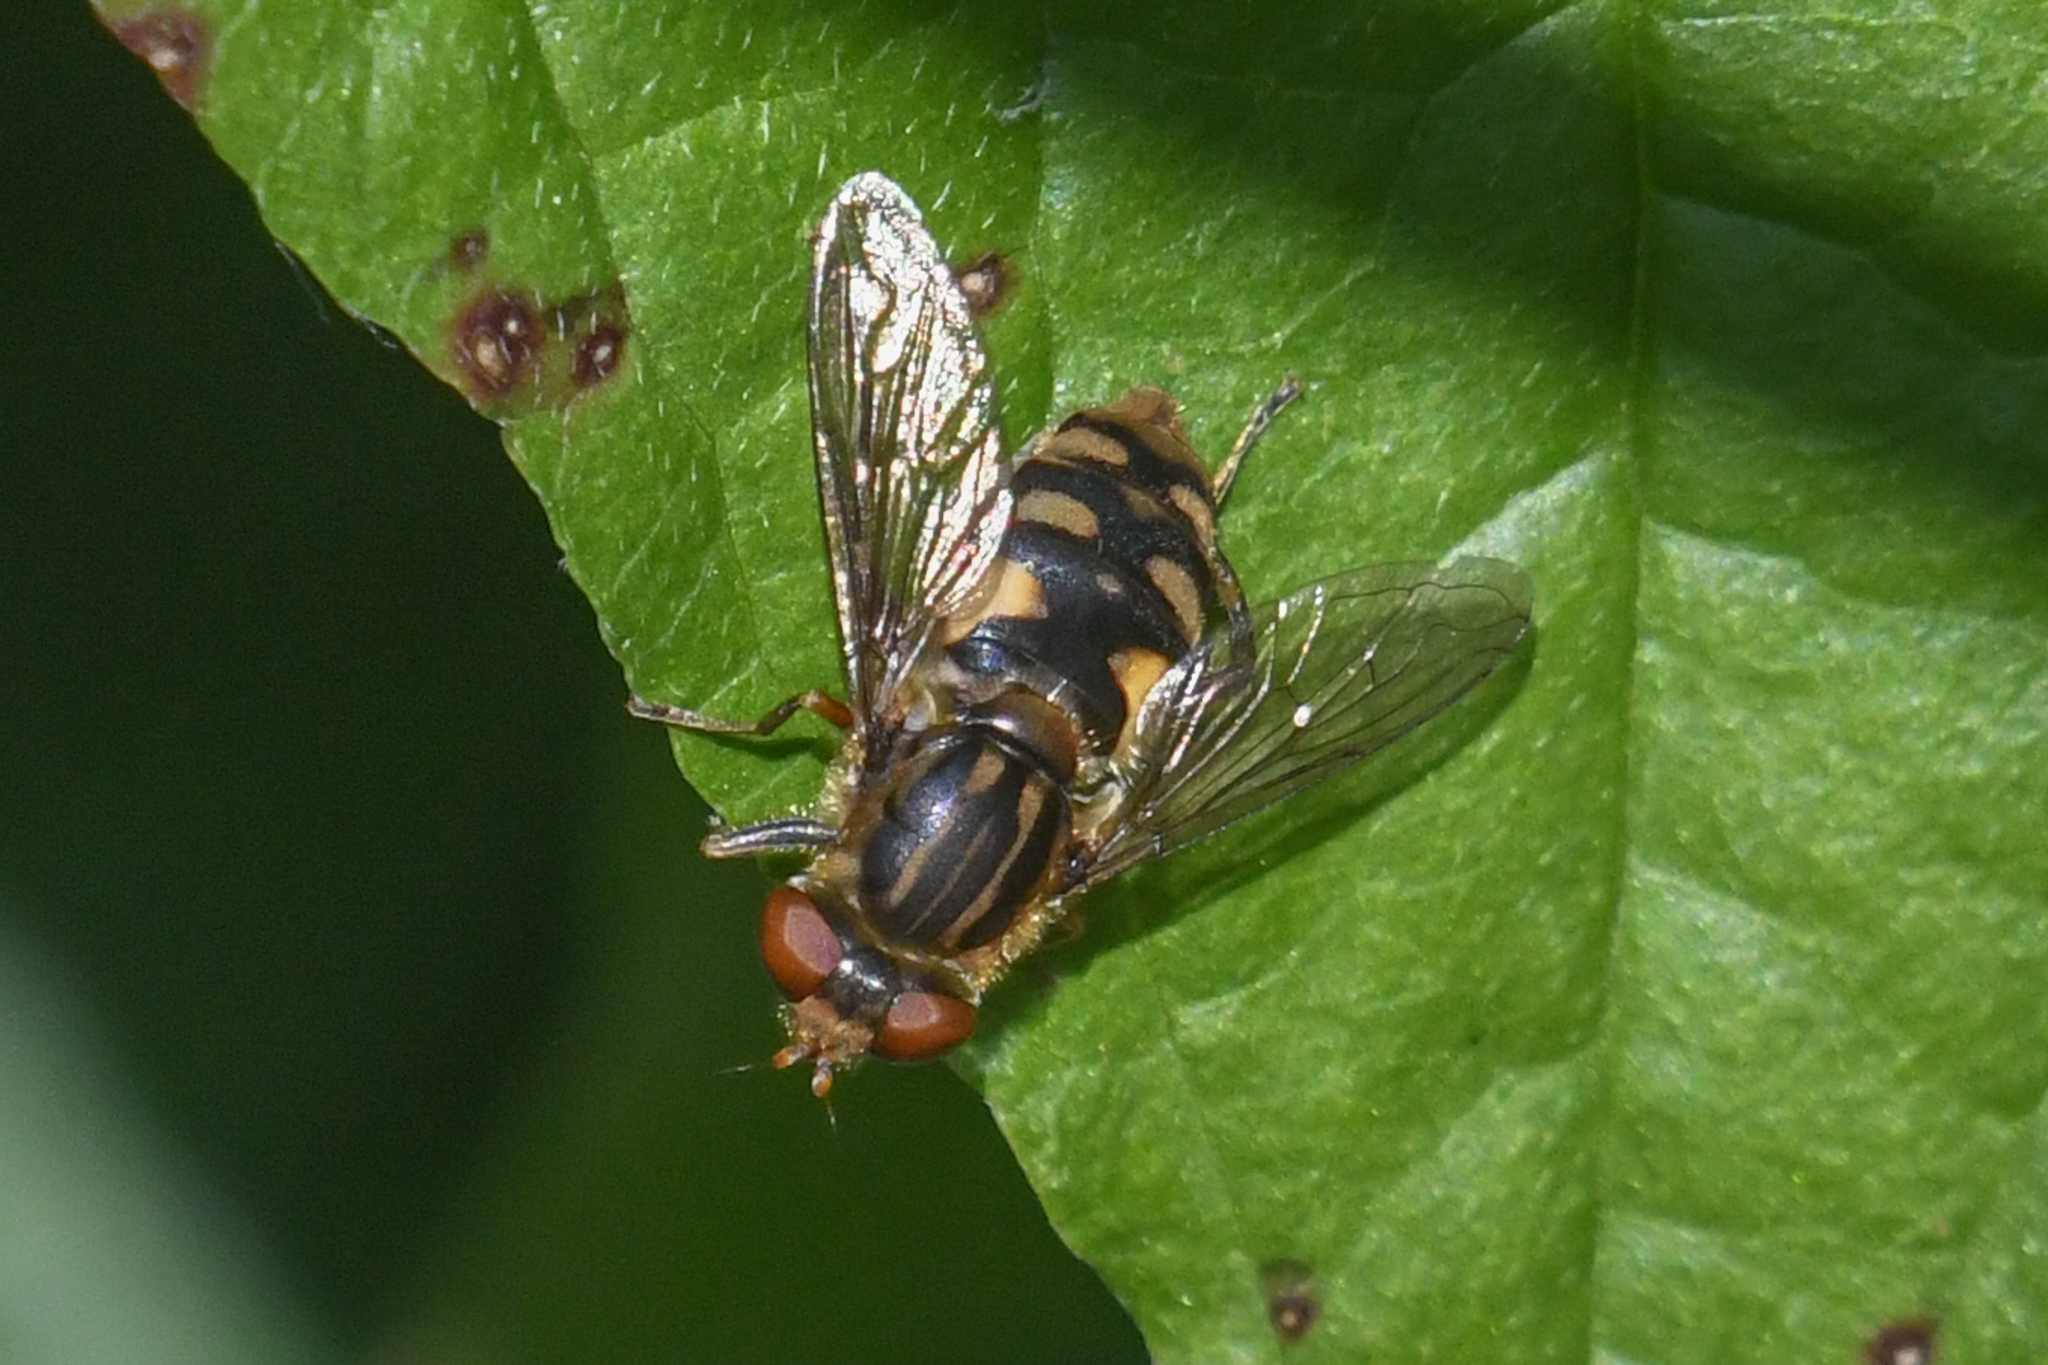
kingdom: Animalia
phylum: Arthropoda
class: Insecta
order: Diptera
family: Syrphidae
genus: Parhelophilus
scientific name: Parhelophilus rex
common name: Dusky bog fly
